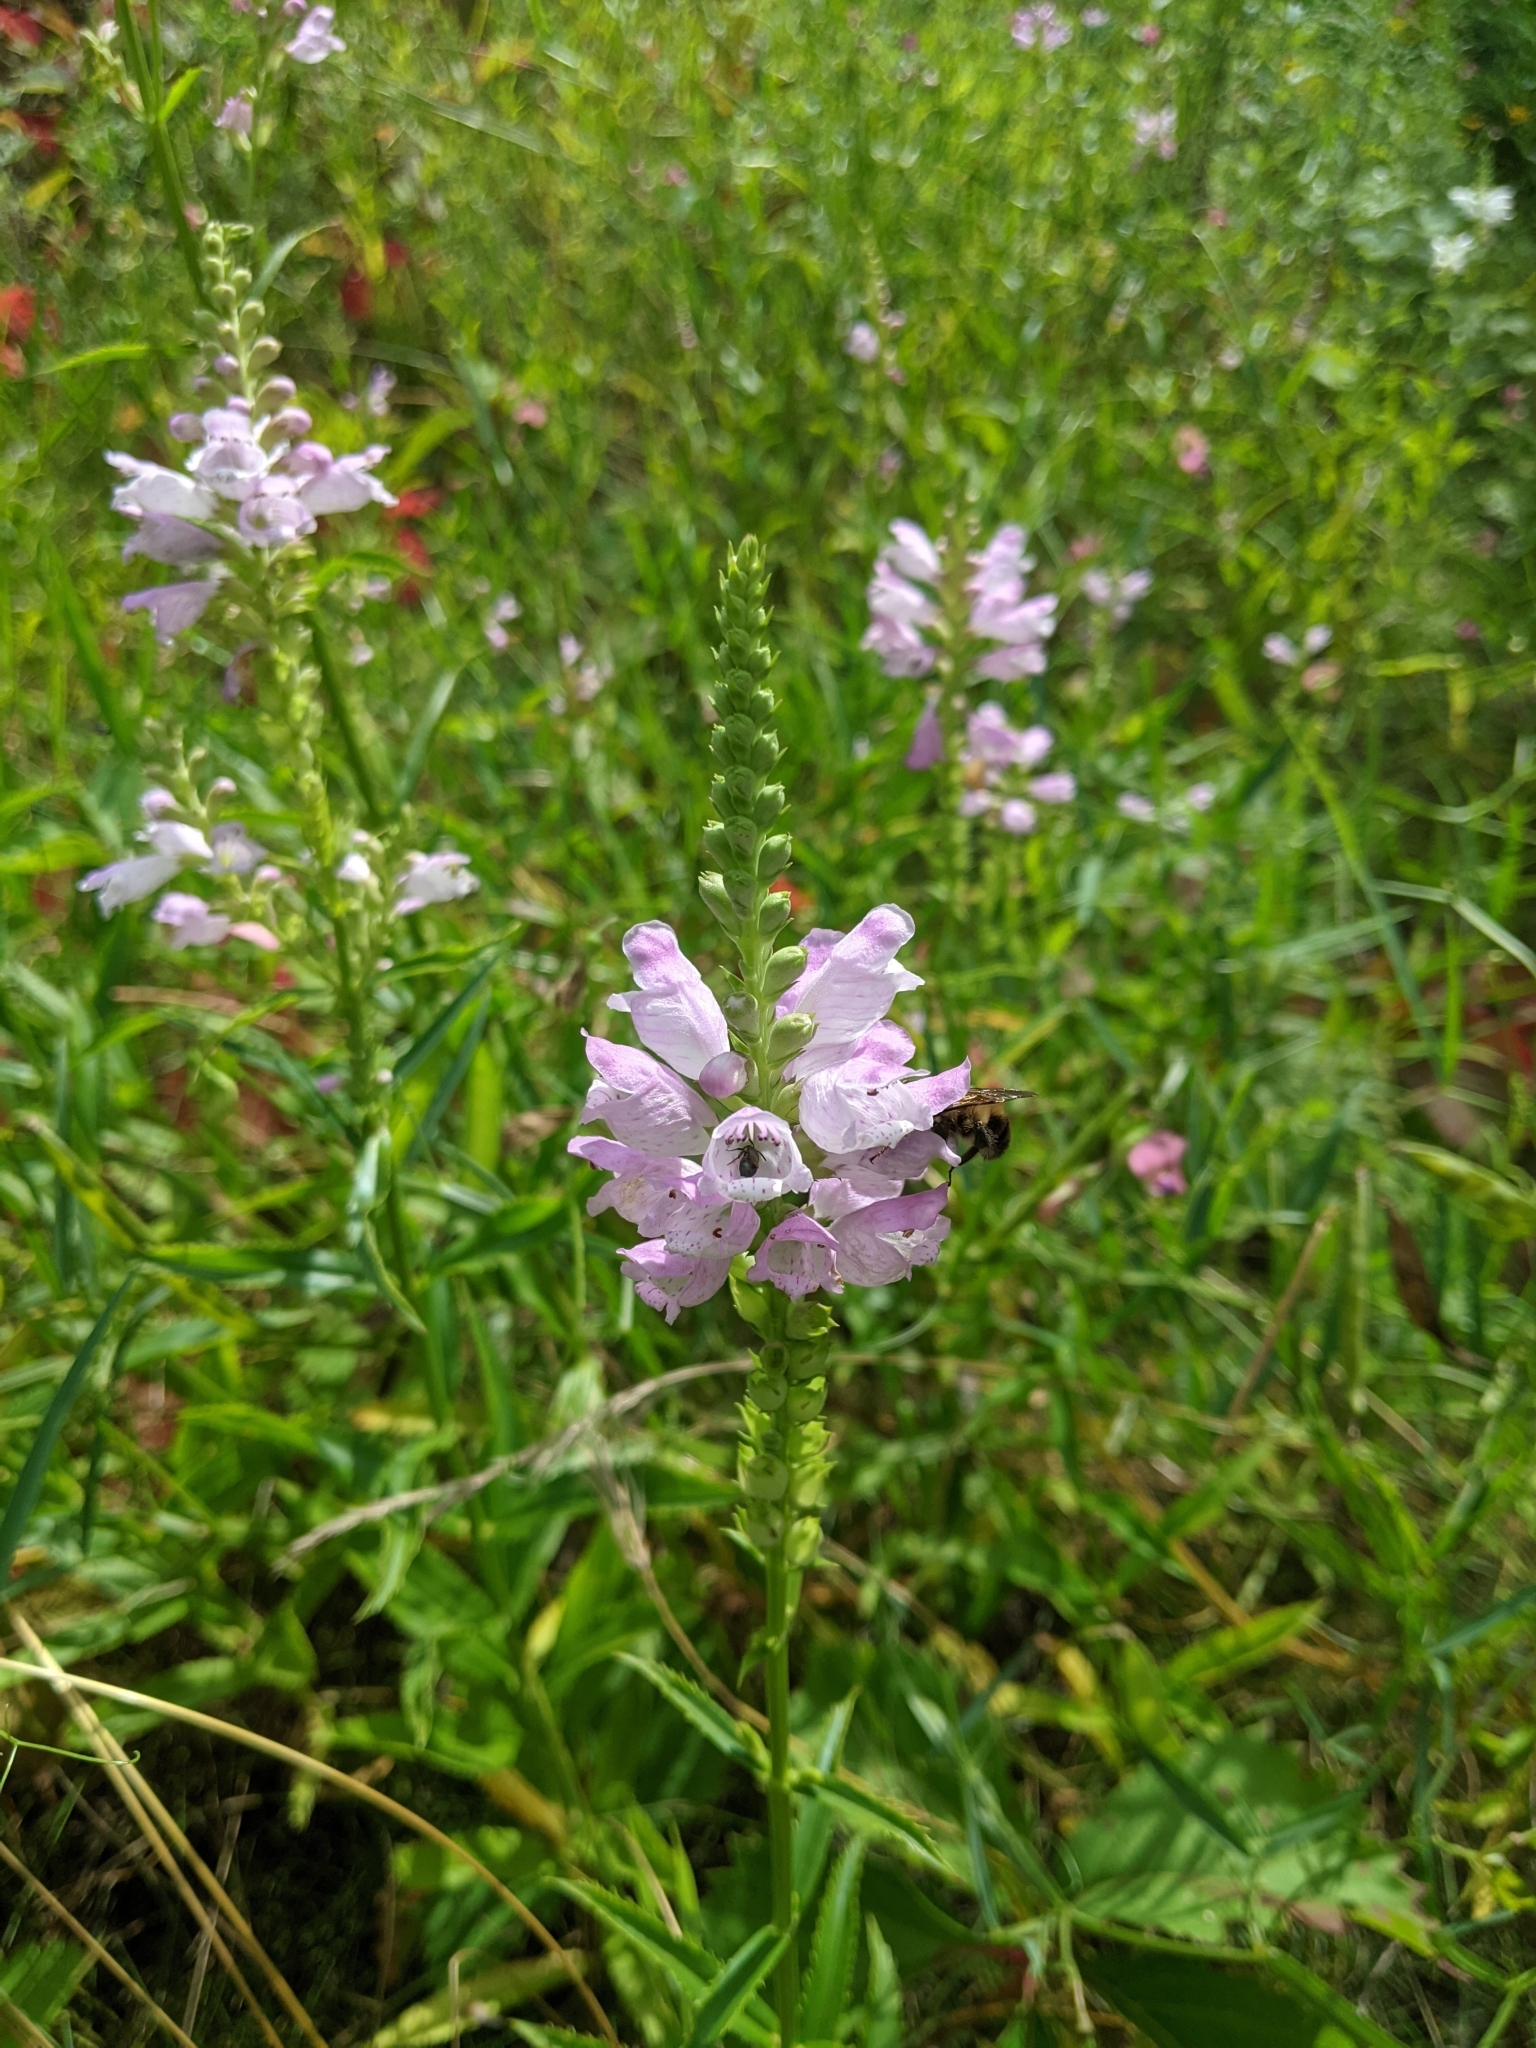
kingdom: Plantae
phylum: Tracheophyta
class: Magnoliopsida
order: Lamiales
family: Lamiaceae
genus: Physostegia
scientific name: Physostegia virginiana
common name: Obedient-plant
